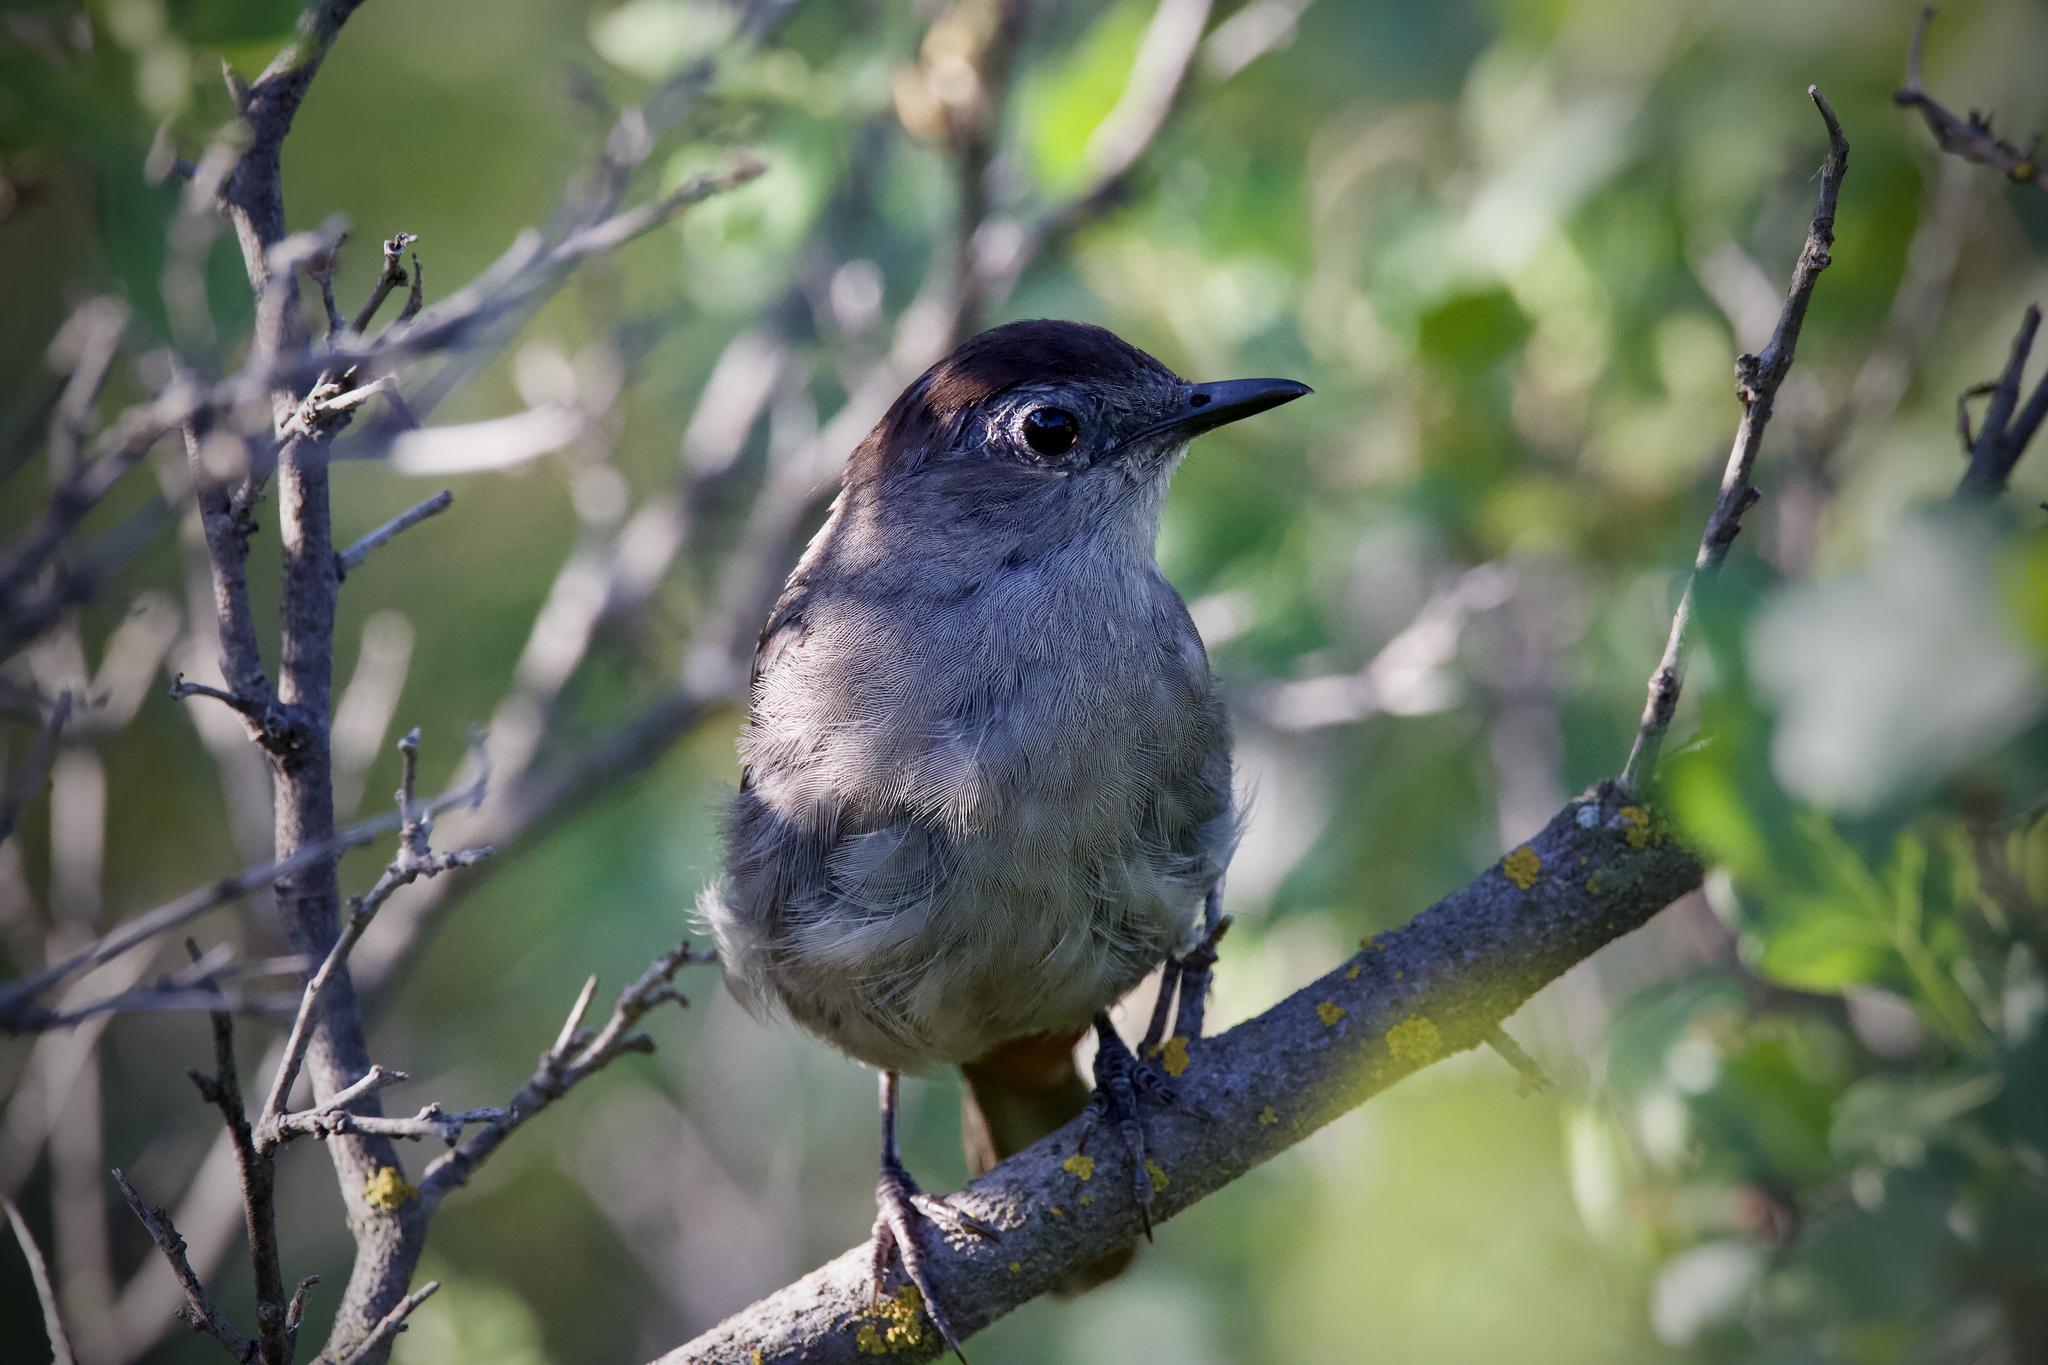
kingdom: Animalia
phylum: Chordata
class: Aves
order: Passeriformes
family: Mimidae
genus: Dumetella
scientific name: Dumetella carolinensis
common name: Gray catbird
